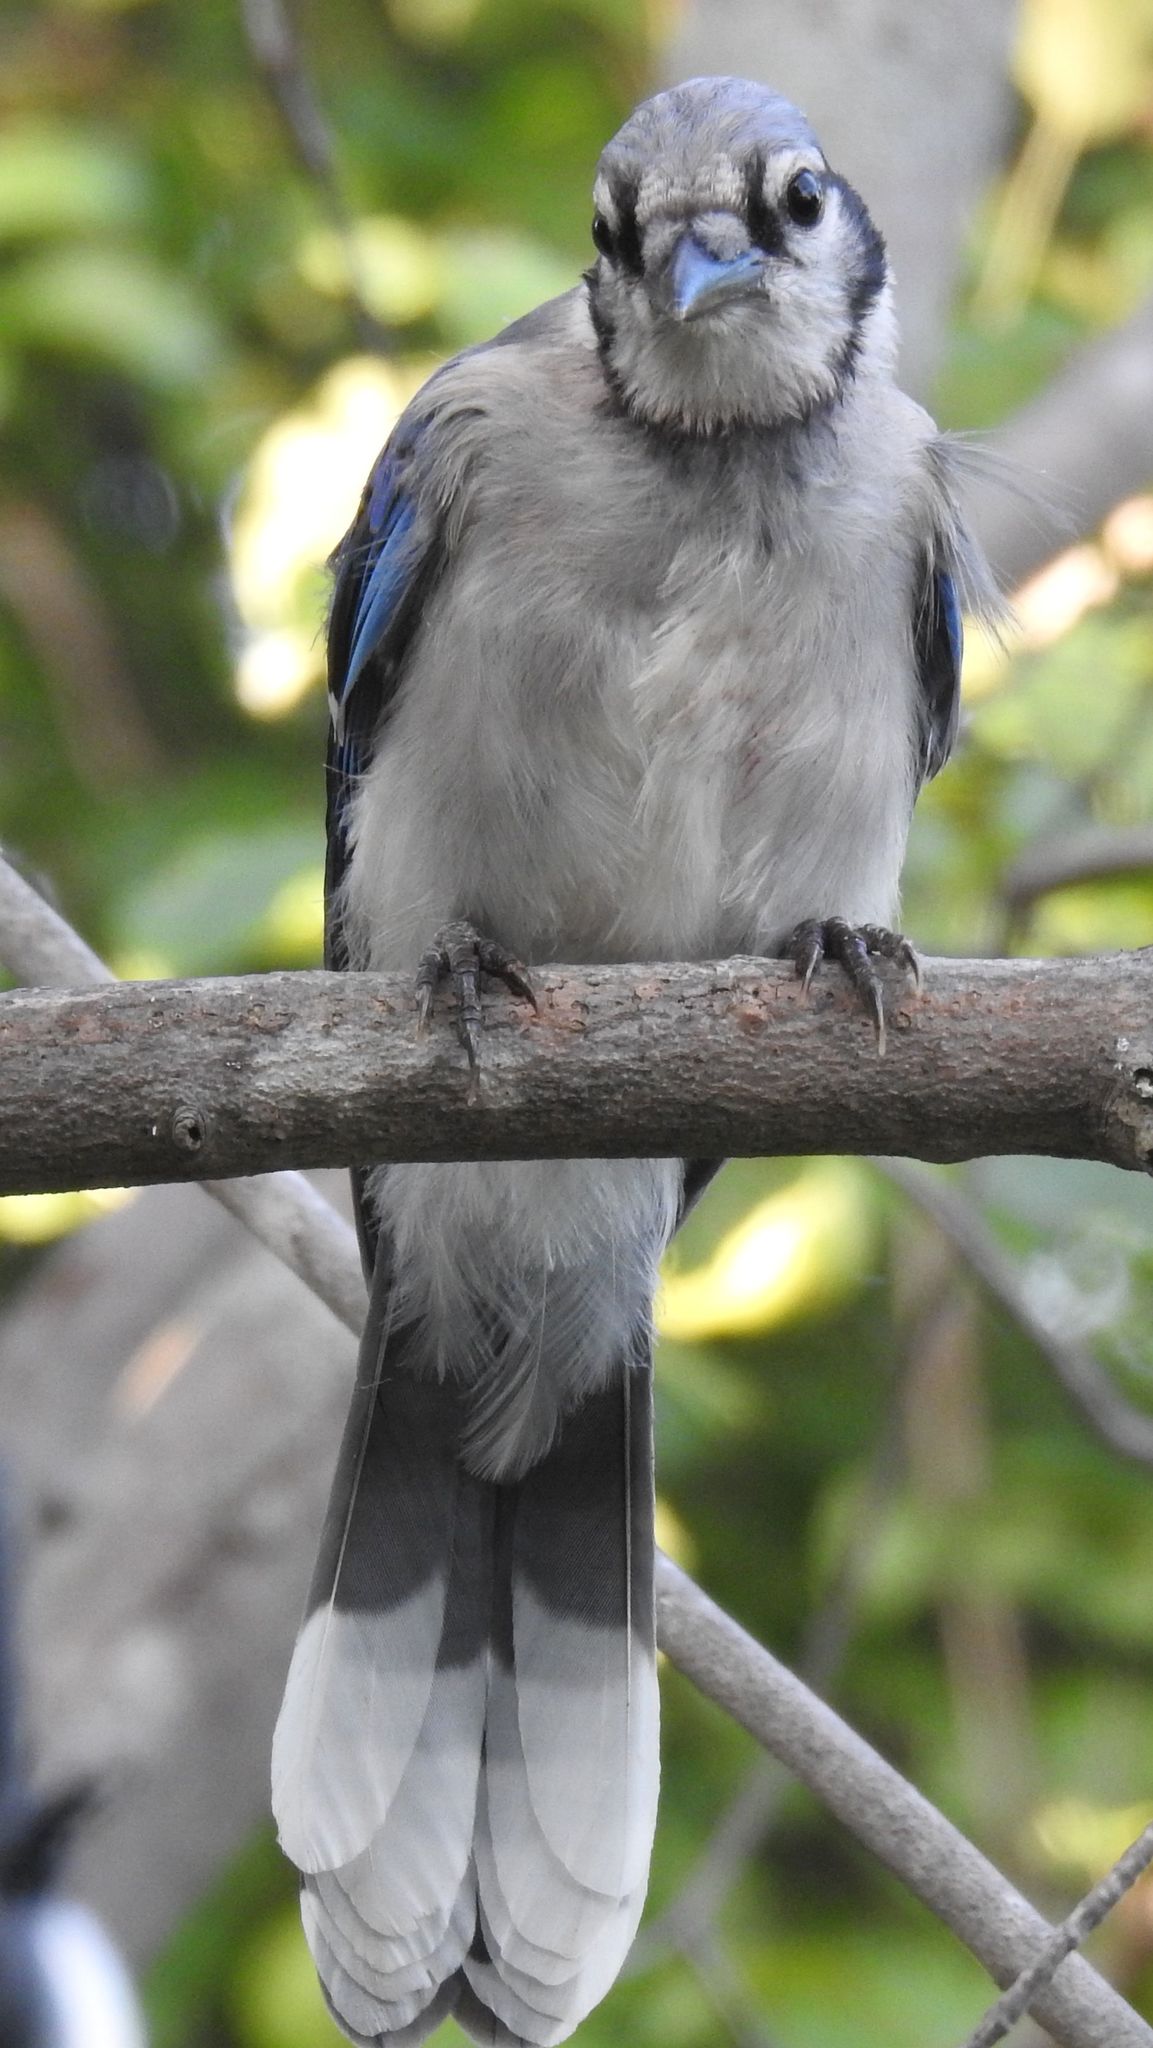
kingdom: Animalia
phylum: Chordata
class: Aves
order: Passeriformes
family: Corvidae
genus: Cyanocitta
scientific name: Cyanocitta cristata
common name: Blue jay
